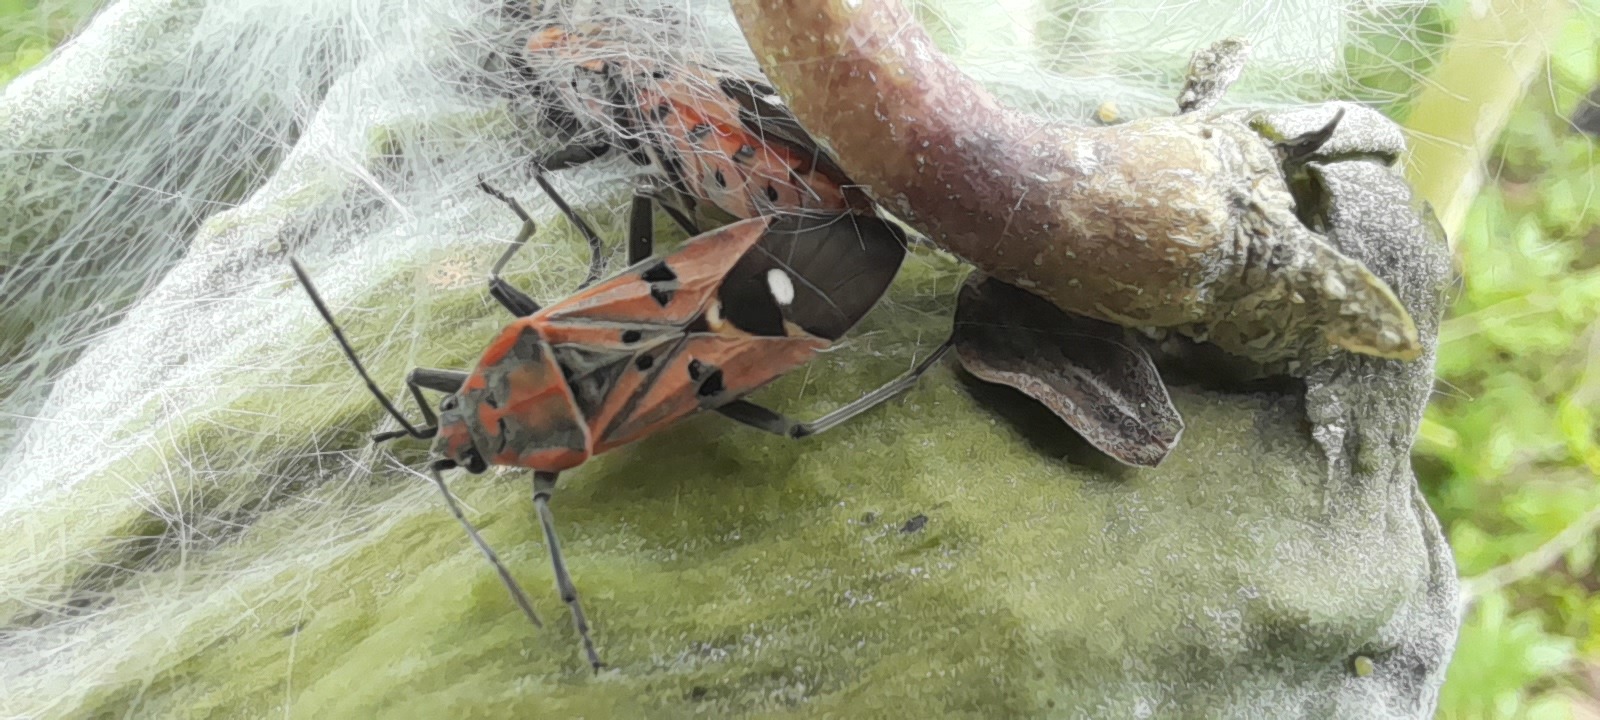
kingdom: Animalia
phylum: Arthropoda
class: Insecta
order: Hemiptera
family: Lygaeidae
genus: Spilostethus
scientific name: Spilostethus pandurus
